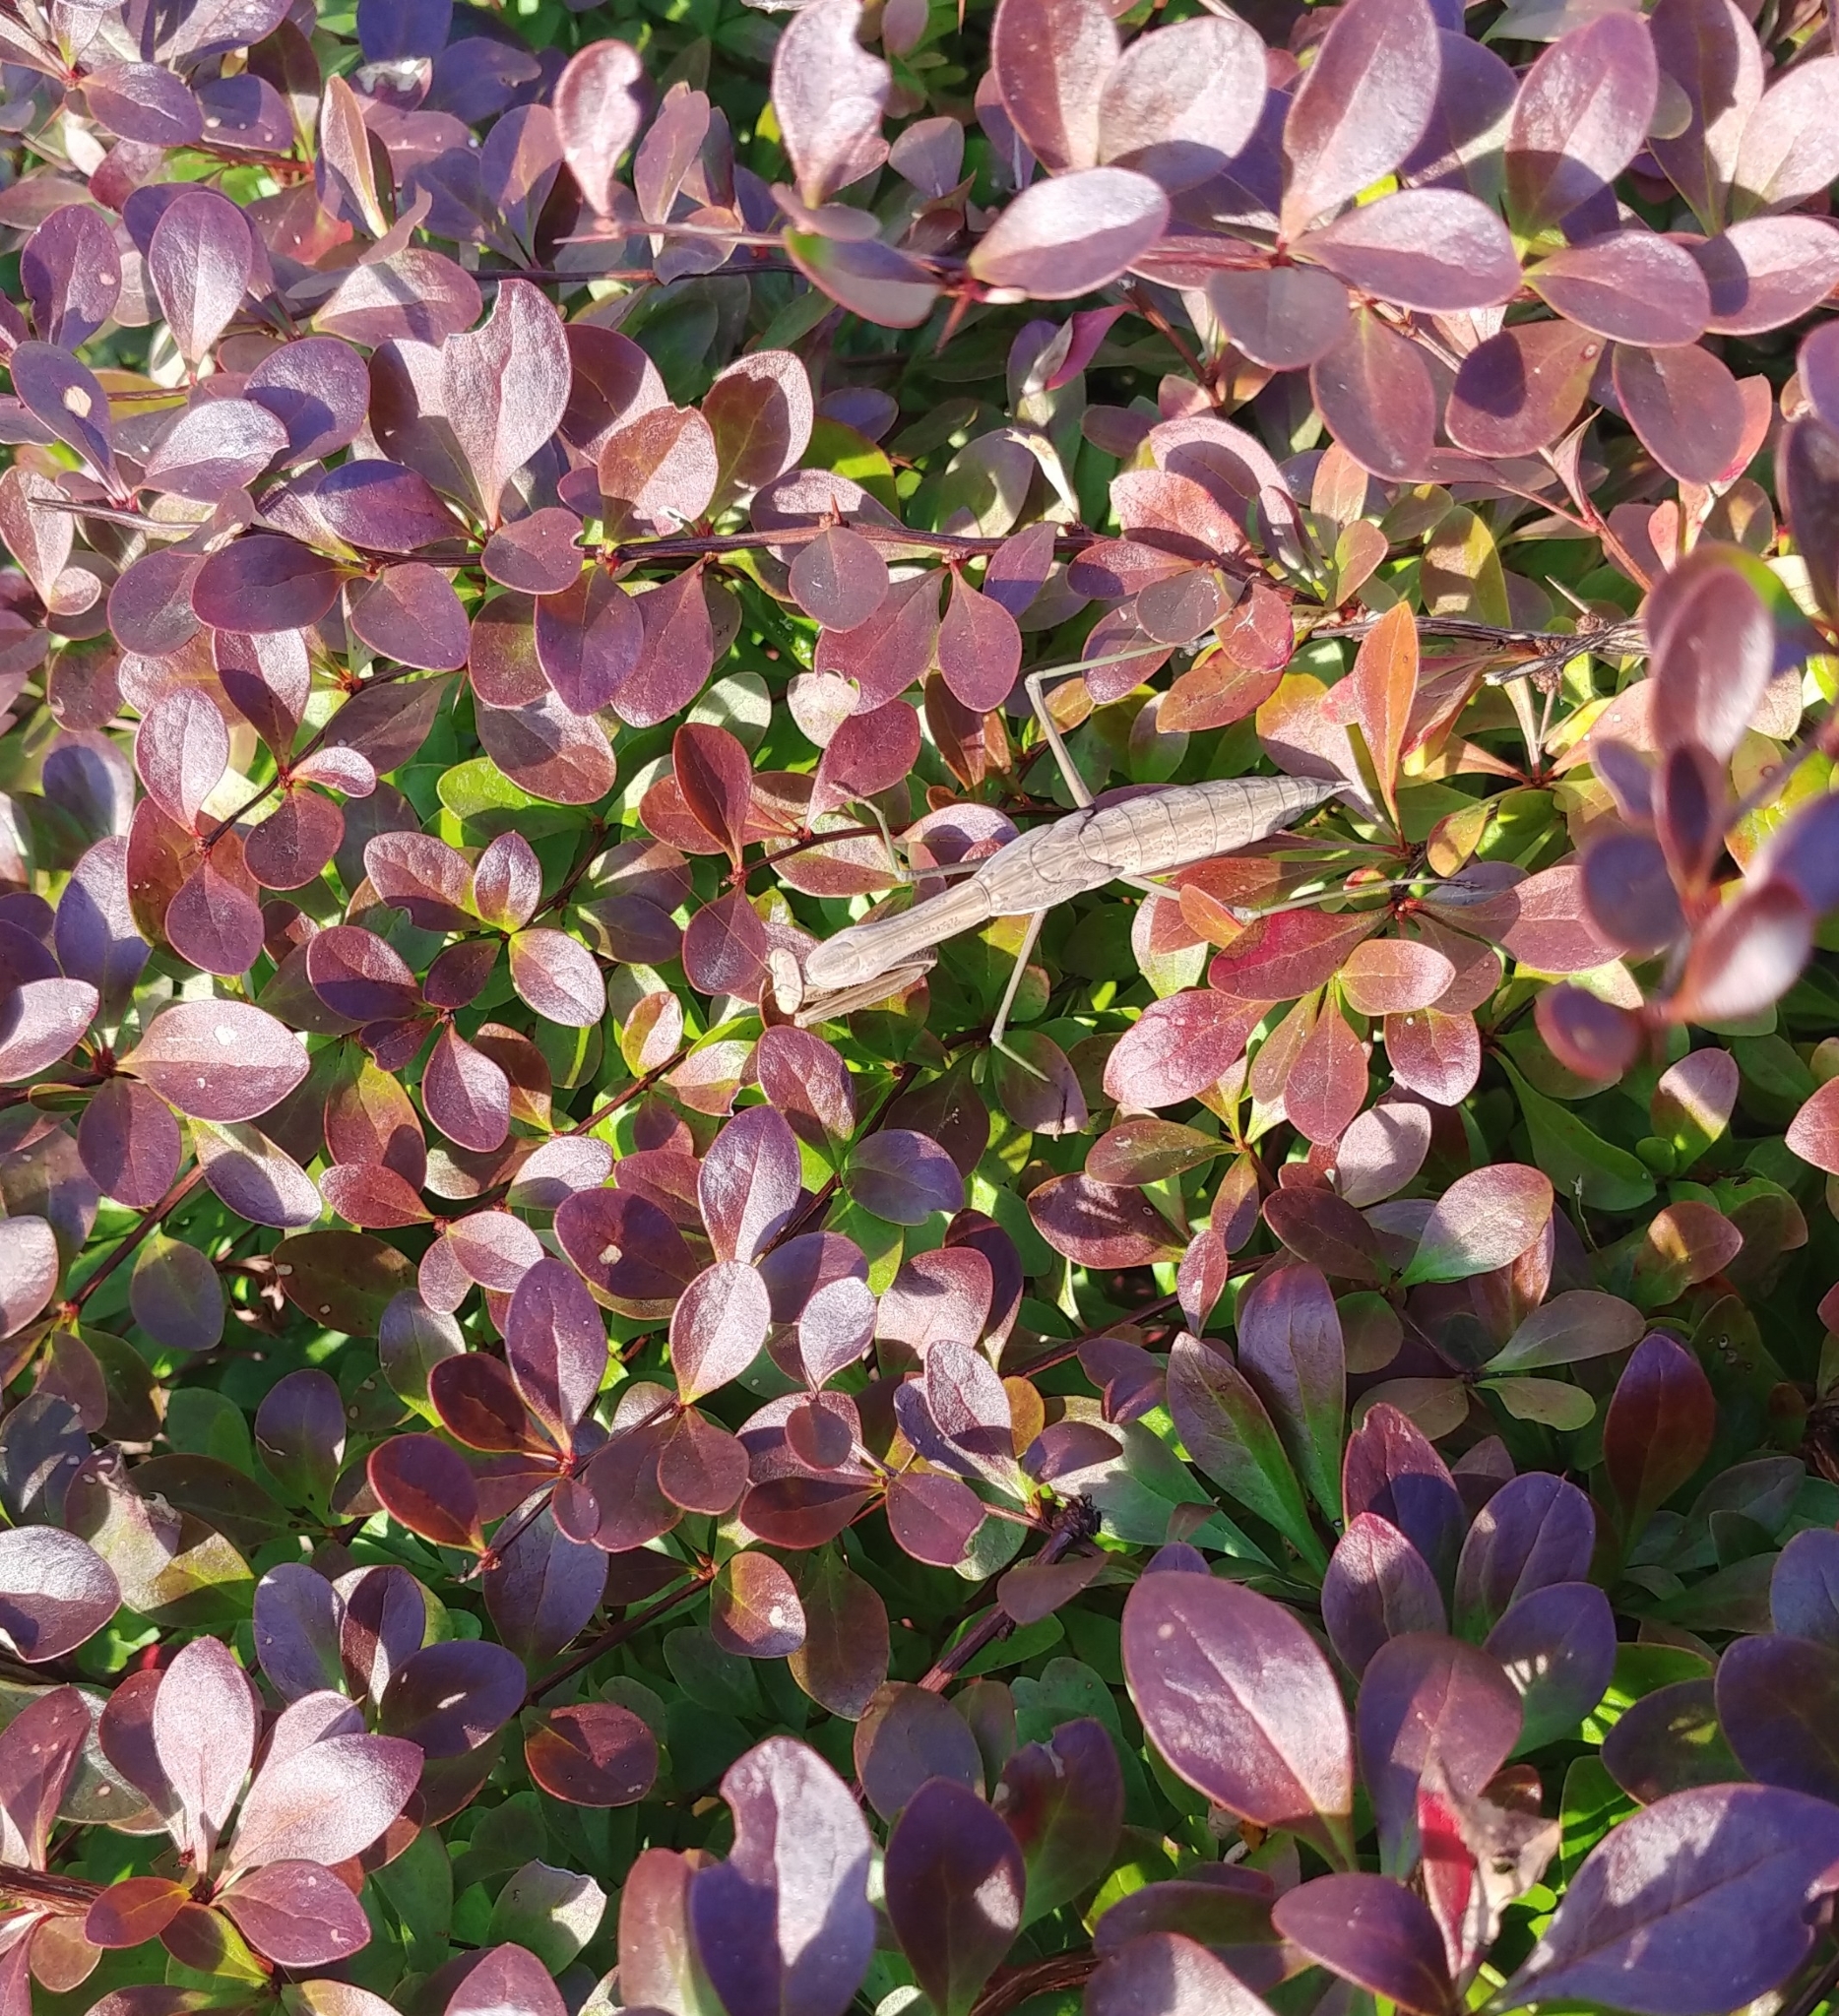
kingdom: Animalia
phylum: Arthropoda
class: Insecta
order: Mantodea
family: Mantidae
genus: Tenodera
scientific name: Tenodera sinensis
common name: Chinese mantis
